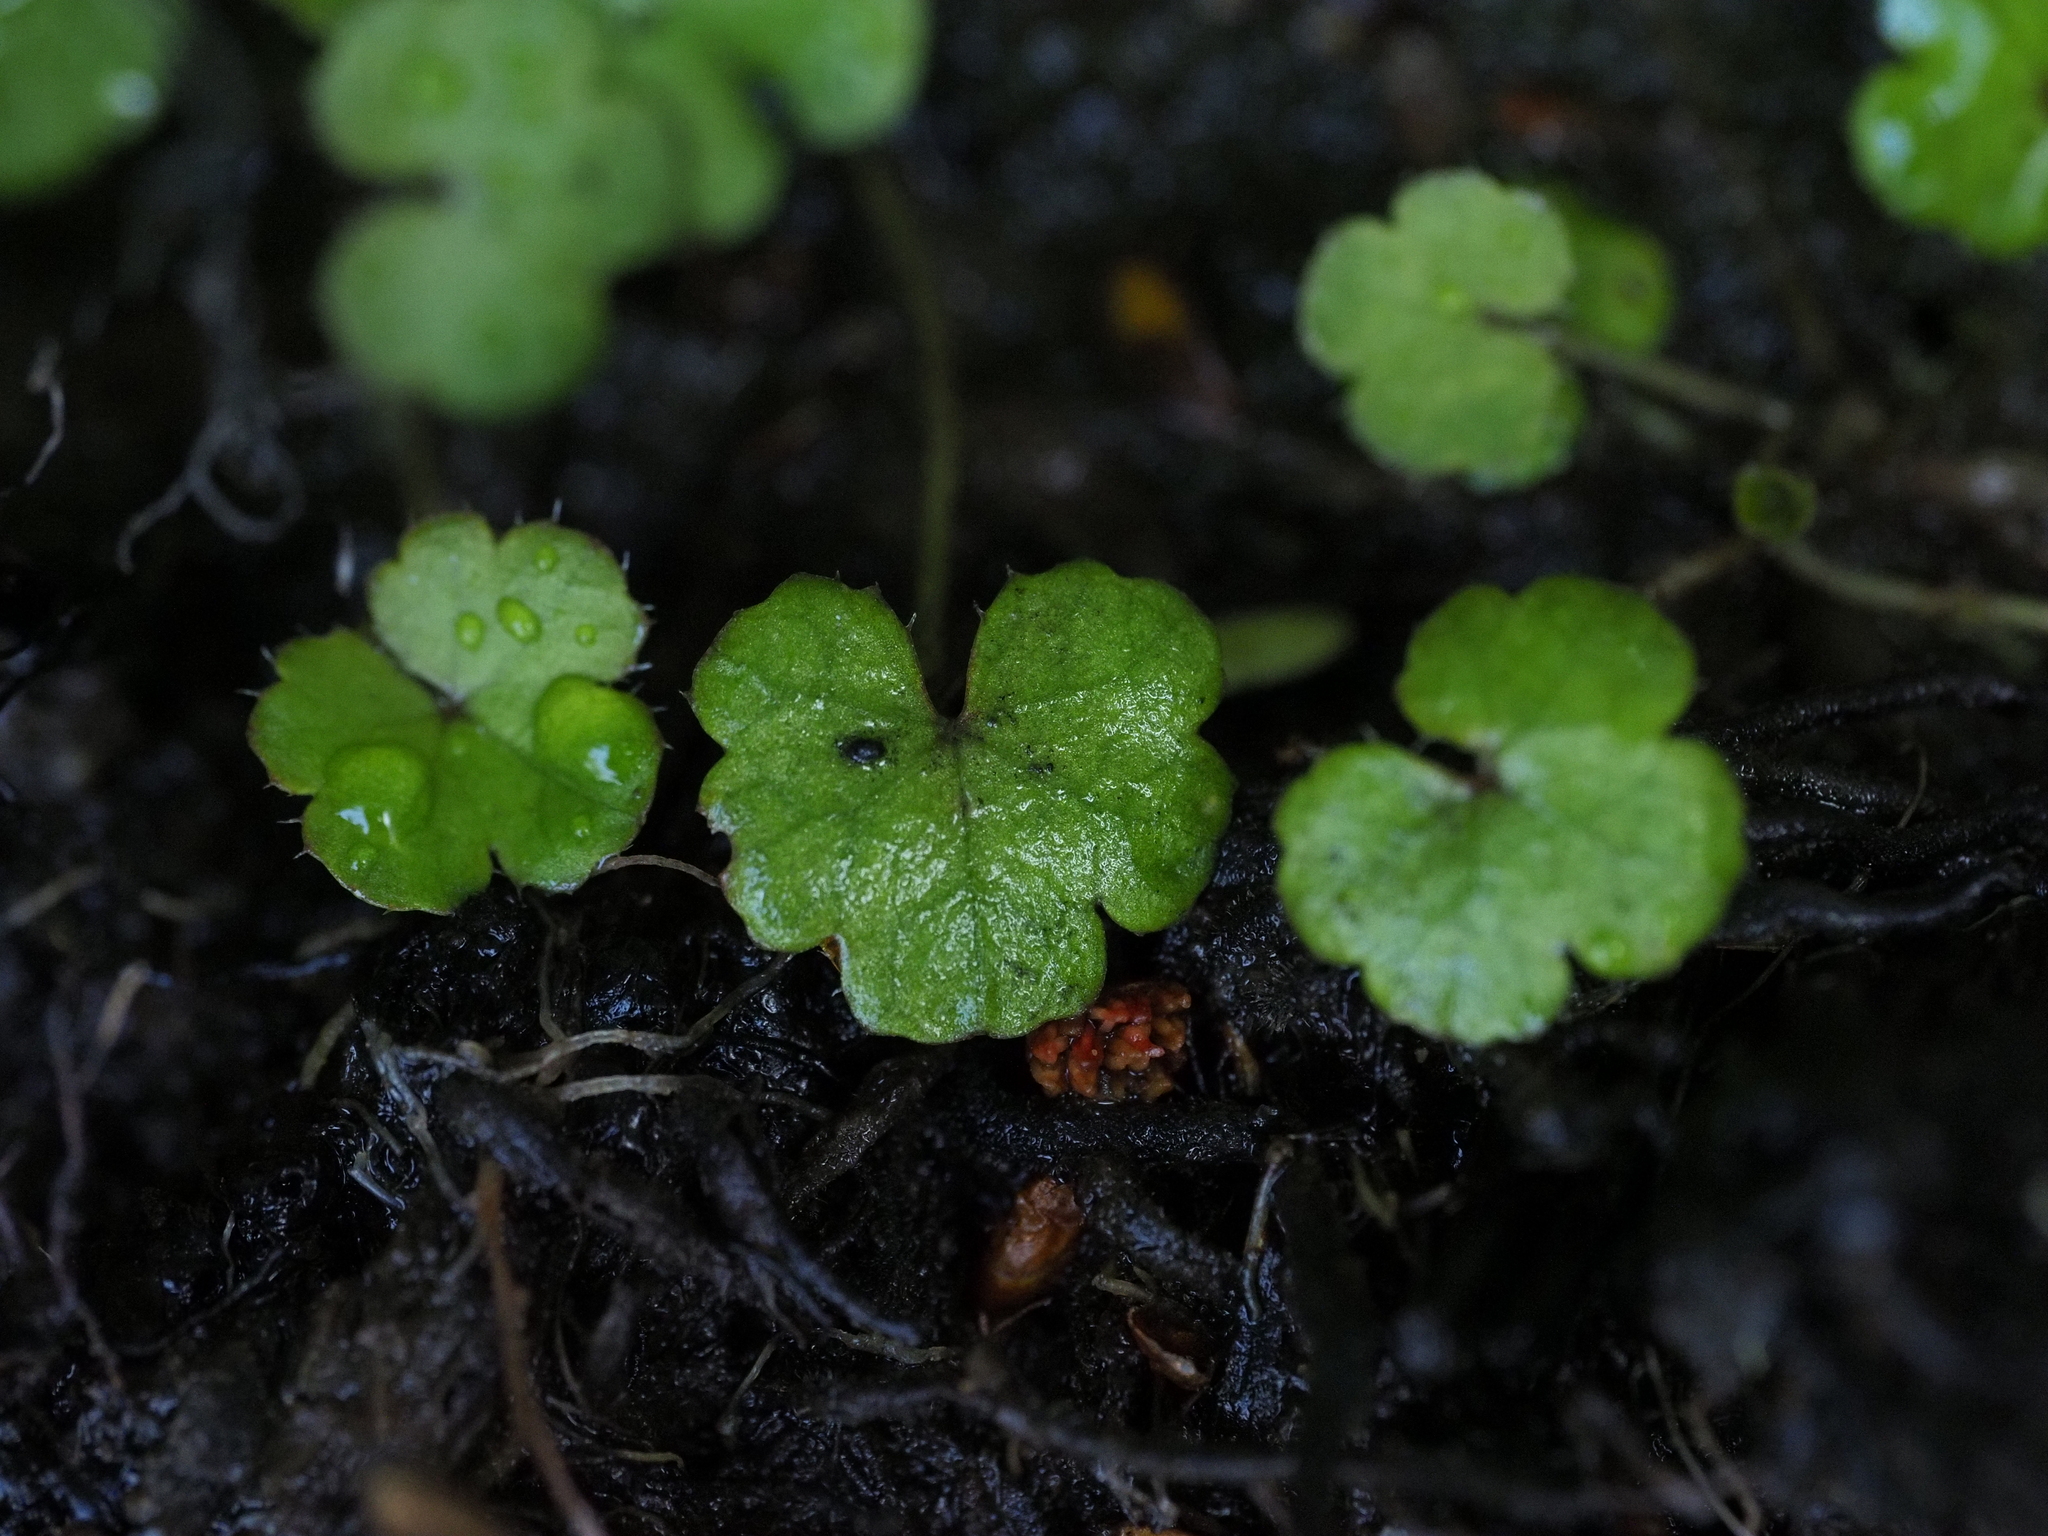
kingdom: Plantae
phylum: Tracheophyta
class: Magnoliopsida
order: Apiales
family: Araliaceae
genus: Hydrocotyle
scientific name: Hydrocotyle novae-zeelandiae
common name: New zealand pennywort
